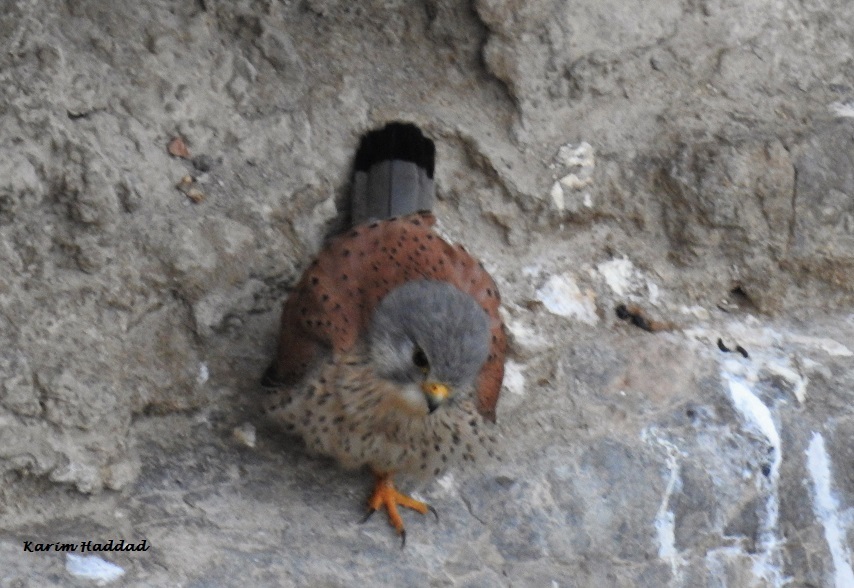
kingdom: Animalia
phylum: Chordata
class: Aves
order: Falconiformes
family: Falconidae
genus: Falco
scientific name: Falco tinnunculus
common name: Common kestrel
